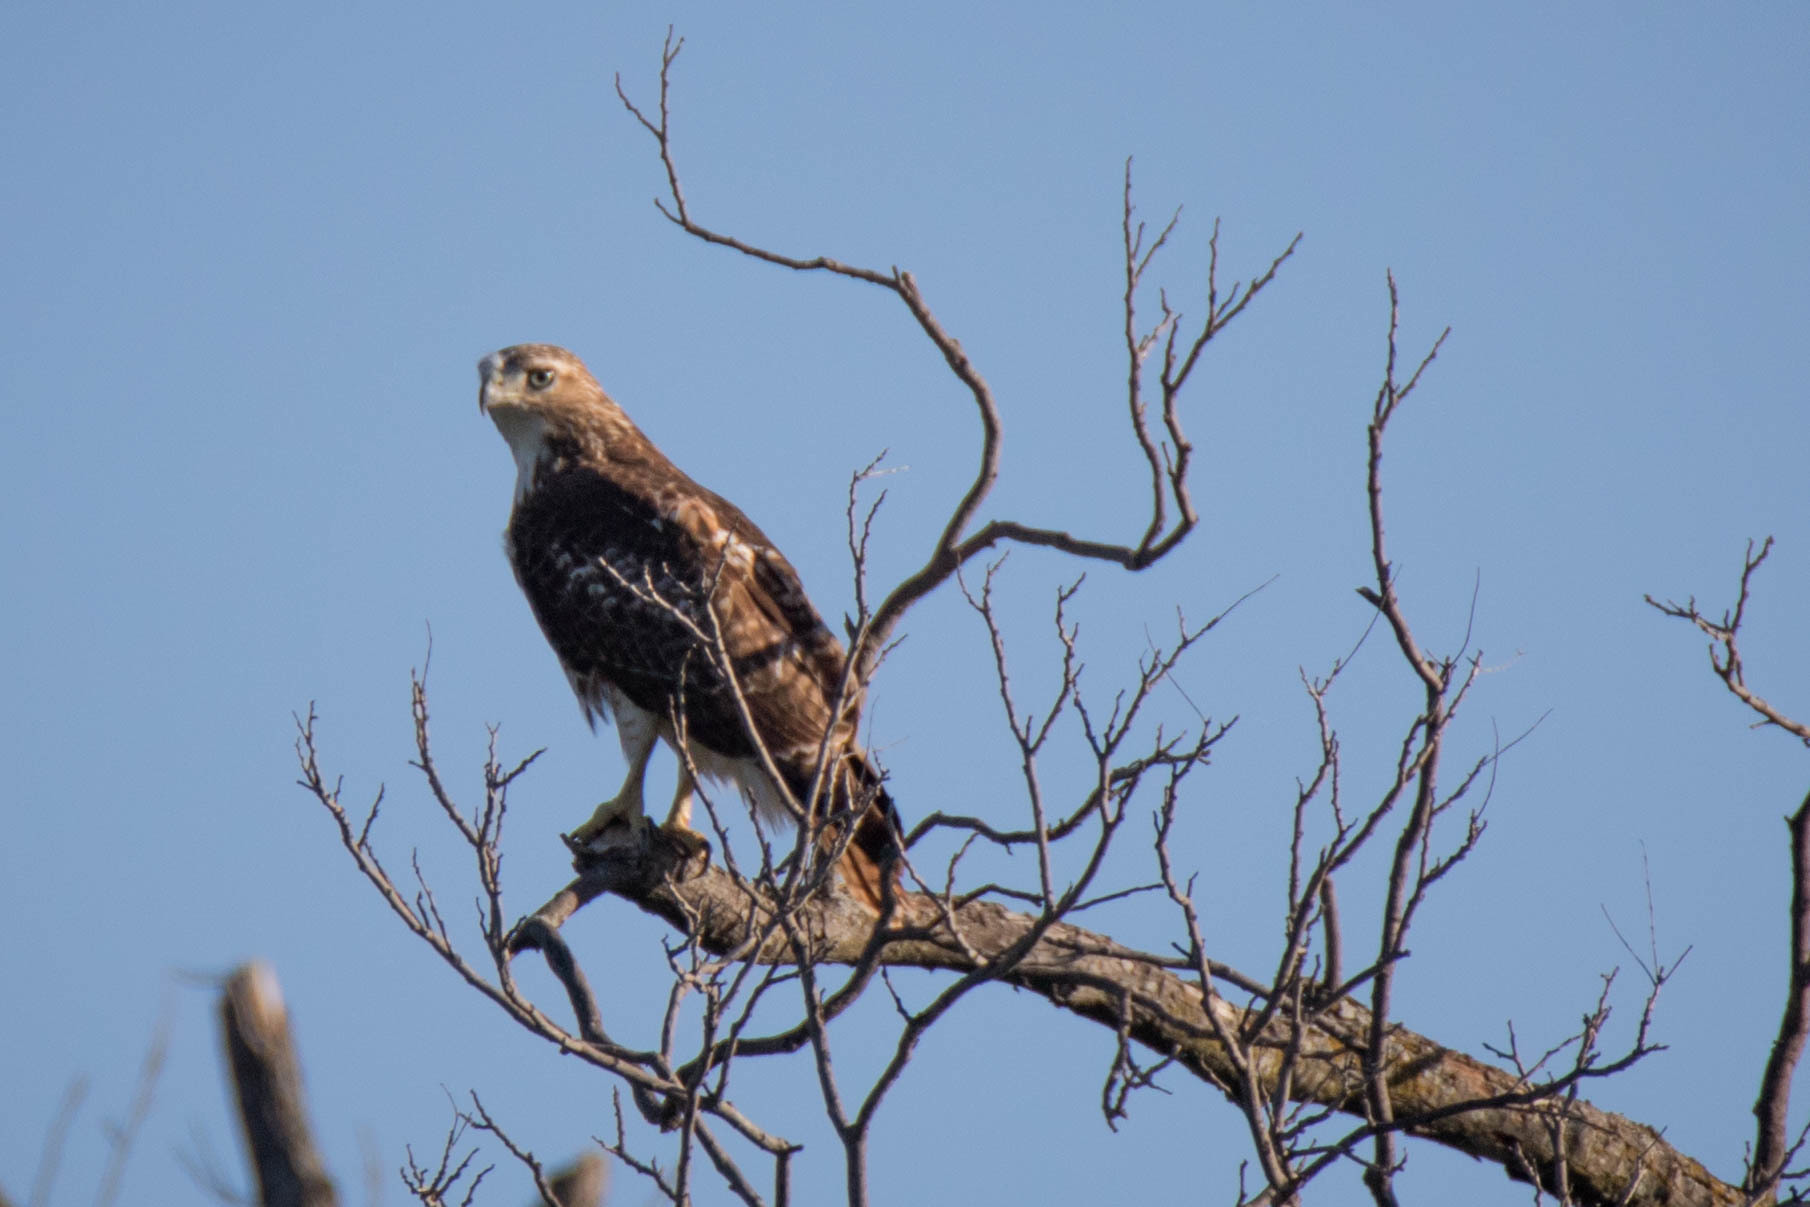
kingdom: Animalia
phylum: Chordata
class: Aves
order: Accipitriformes
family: Accipitridae
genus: Buteo
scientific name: Buteo jamaicensis
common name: Red-tailed hawk
